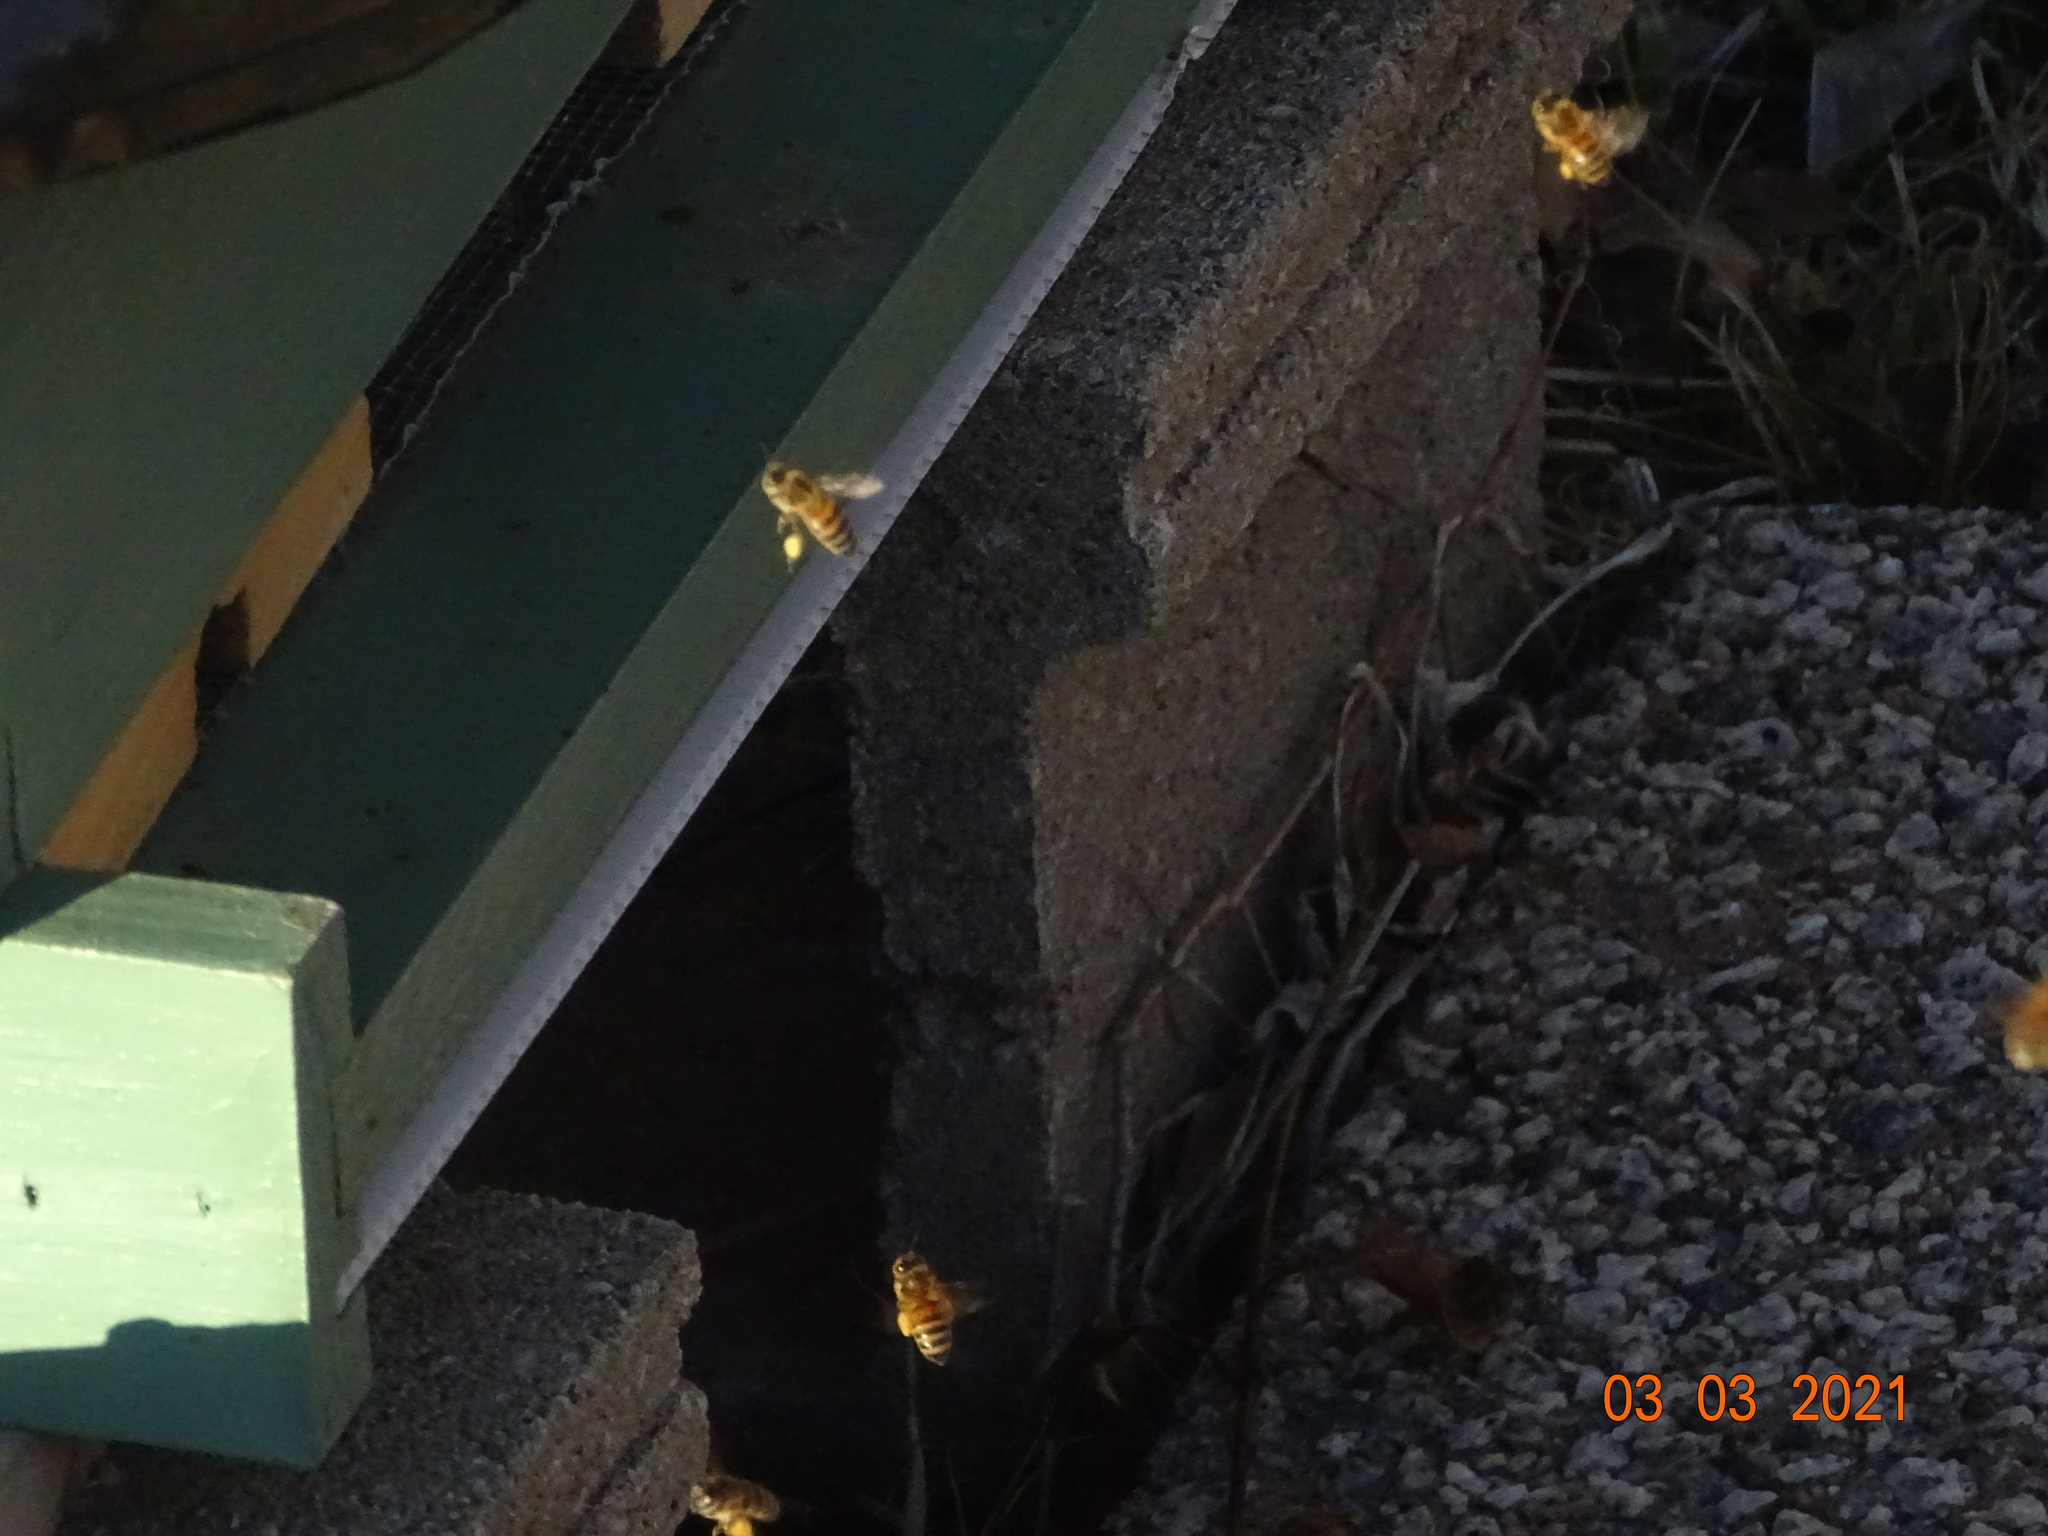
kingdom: Animalia
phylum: Arthropoda
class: Insecta
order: Hymenoptera
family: Apidae
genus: Apis
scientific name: Apis mellifera
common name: Honey bee
